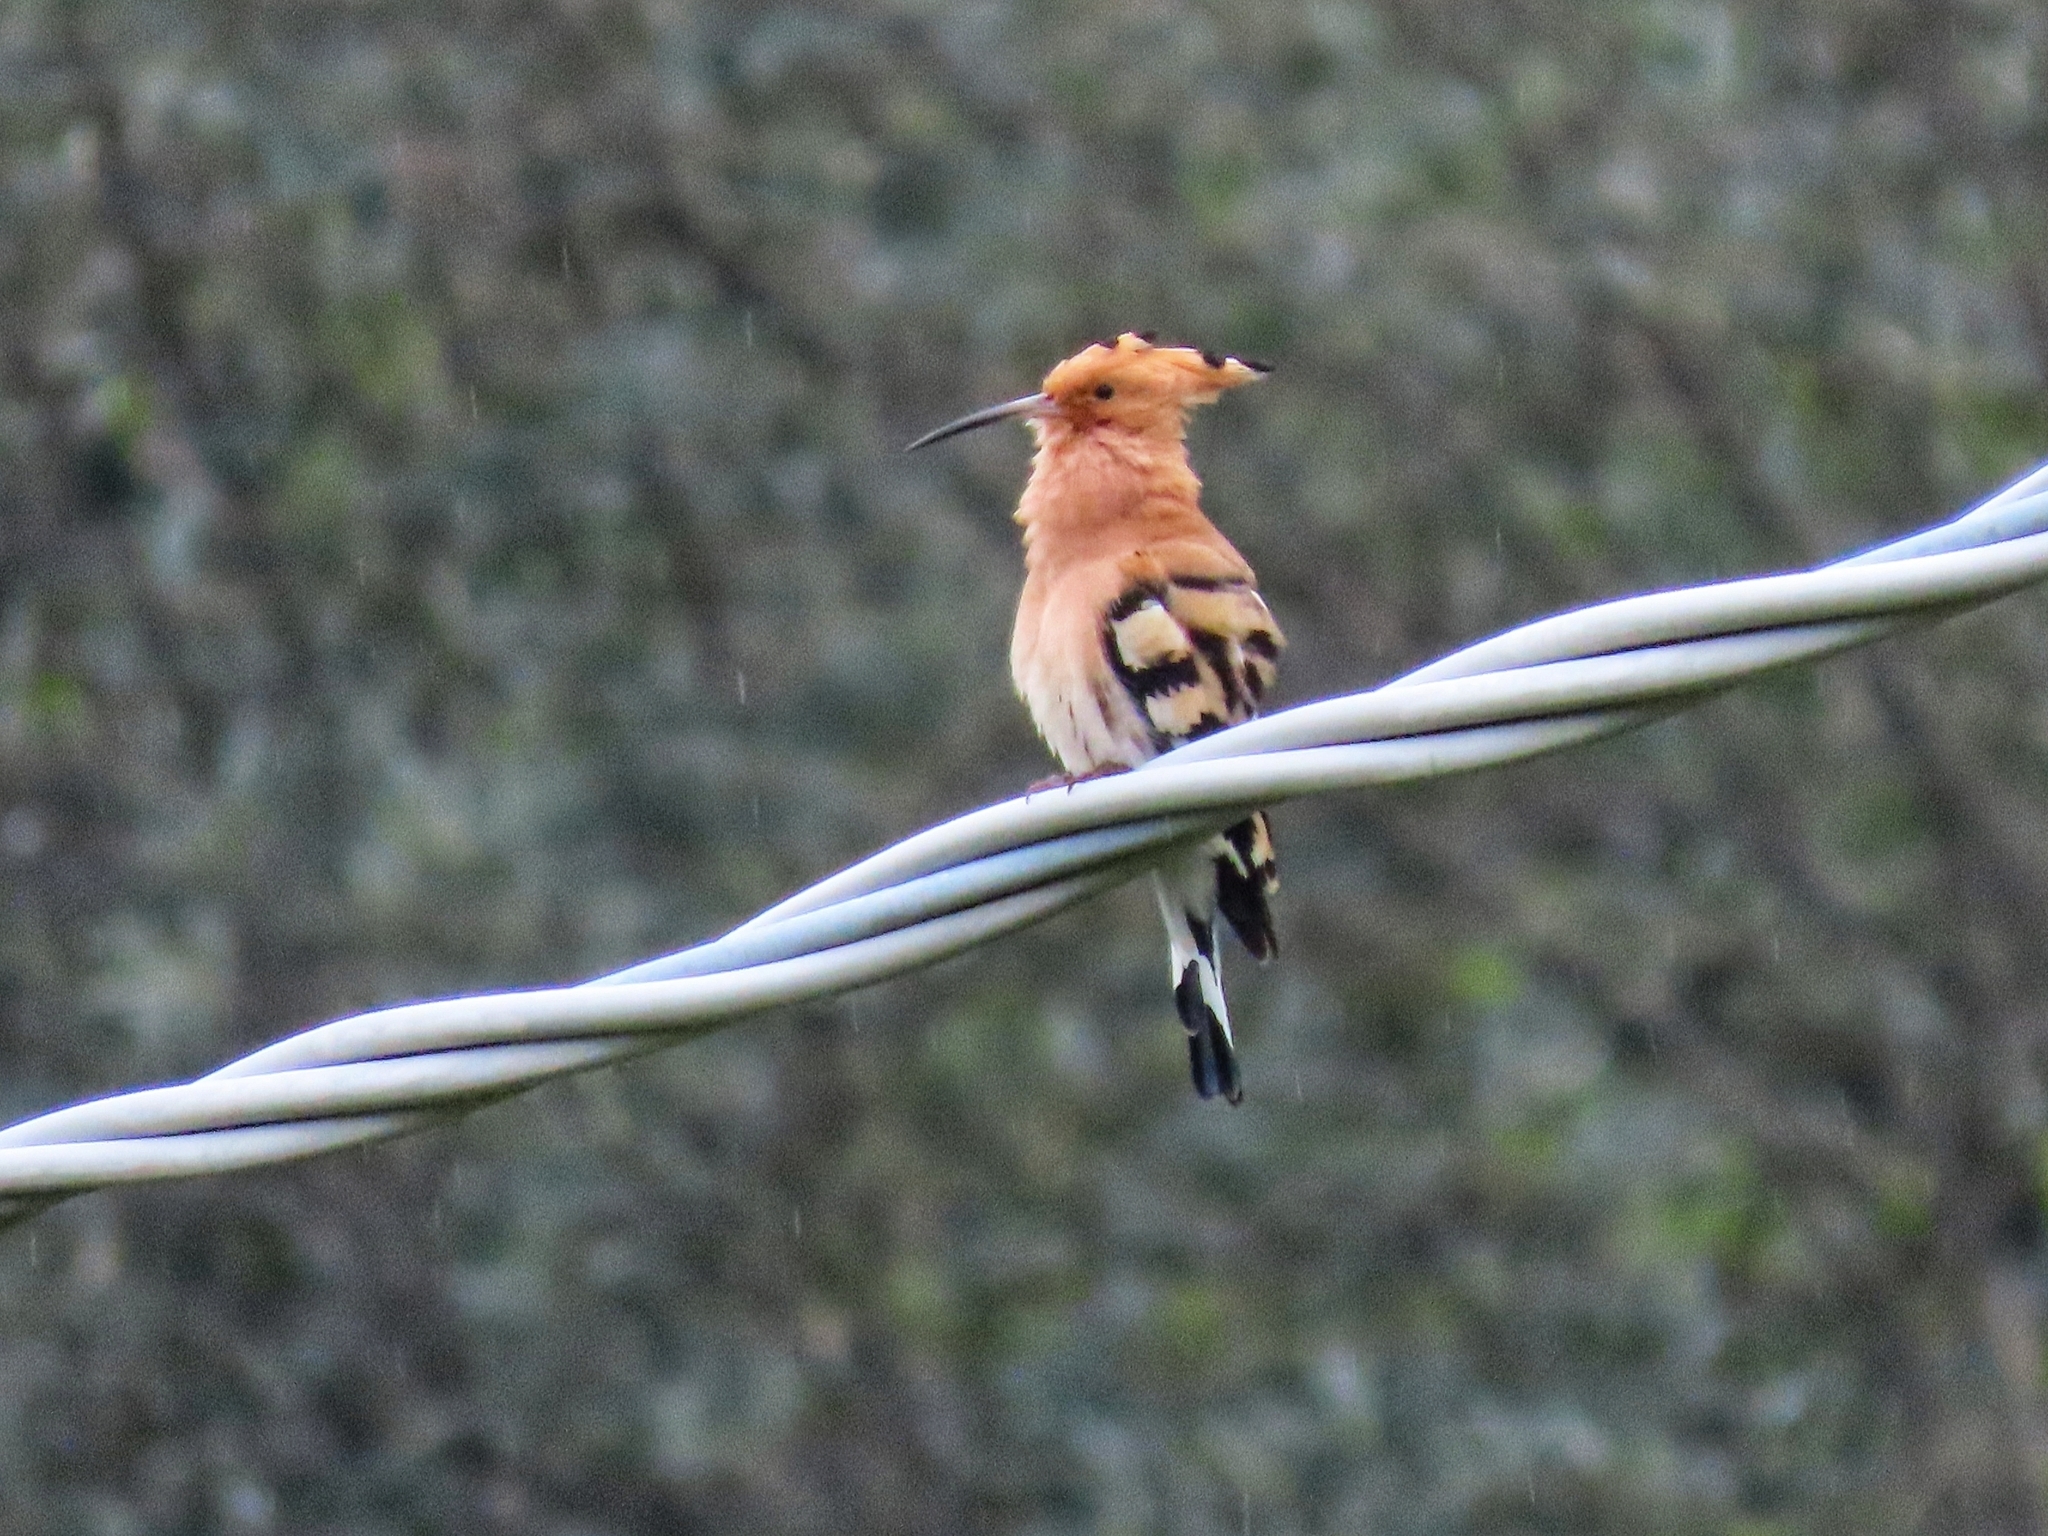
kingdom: Animalia
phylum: Chordata
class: Aves
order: Bucerotiformes
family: Upupidae
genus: Upupa
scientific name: Upupa epops
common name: Eurasian hoopoe
